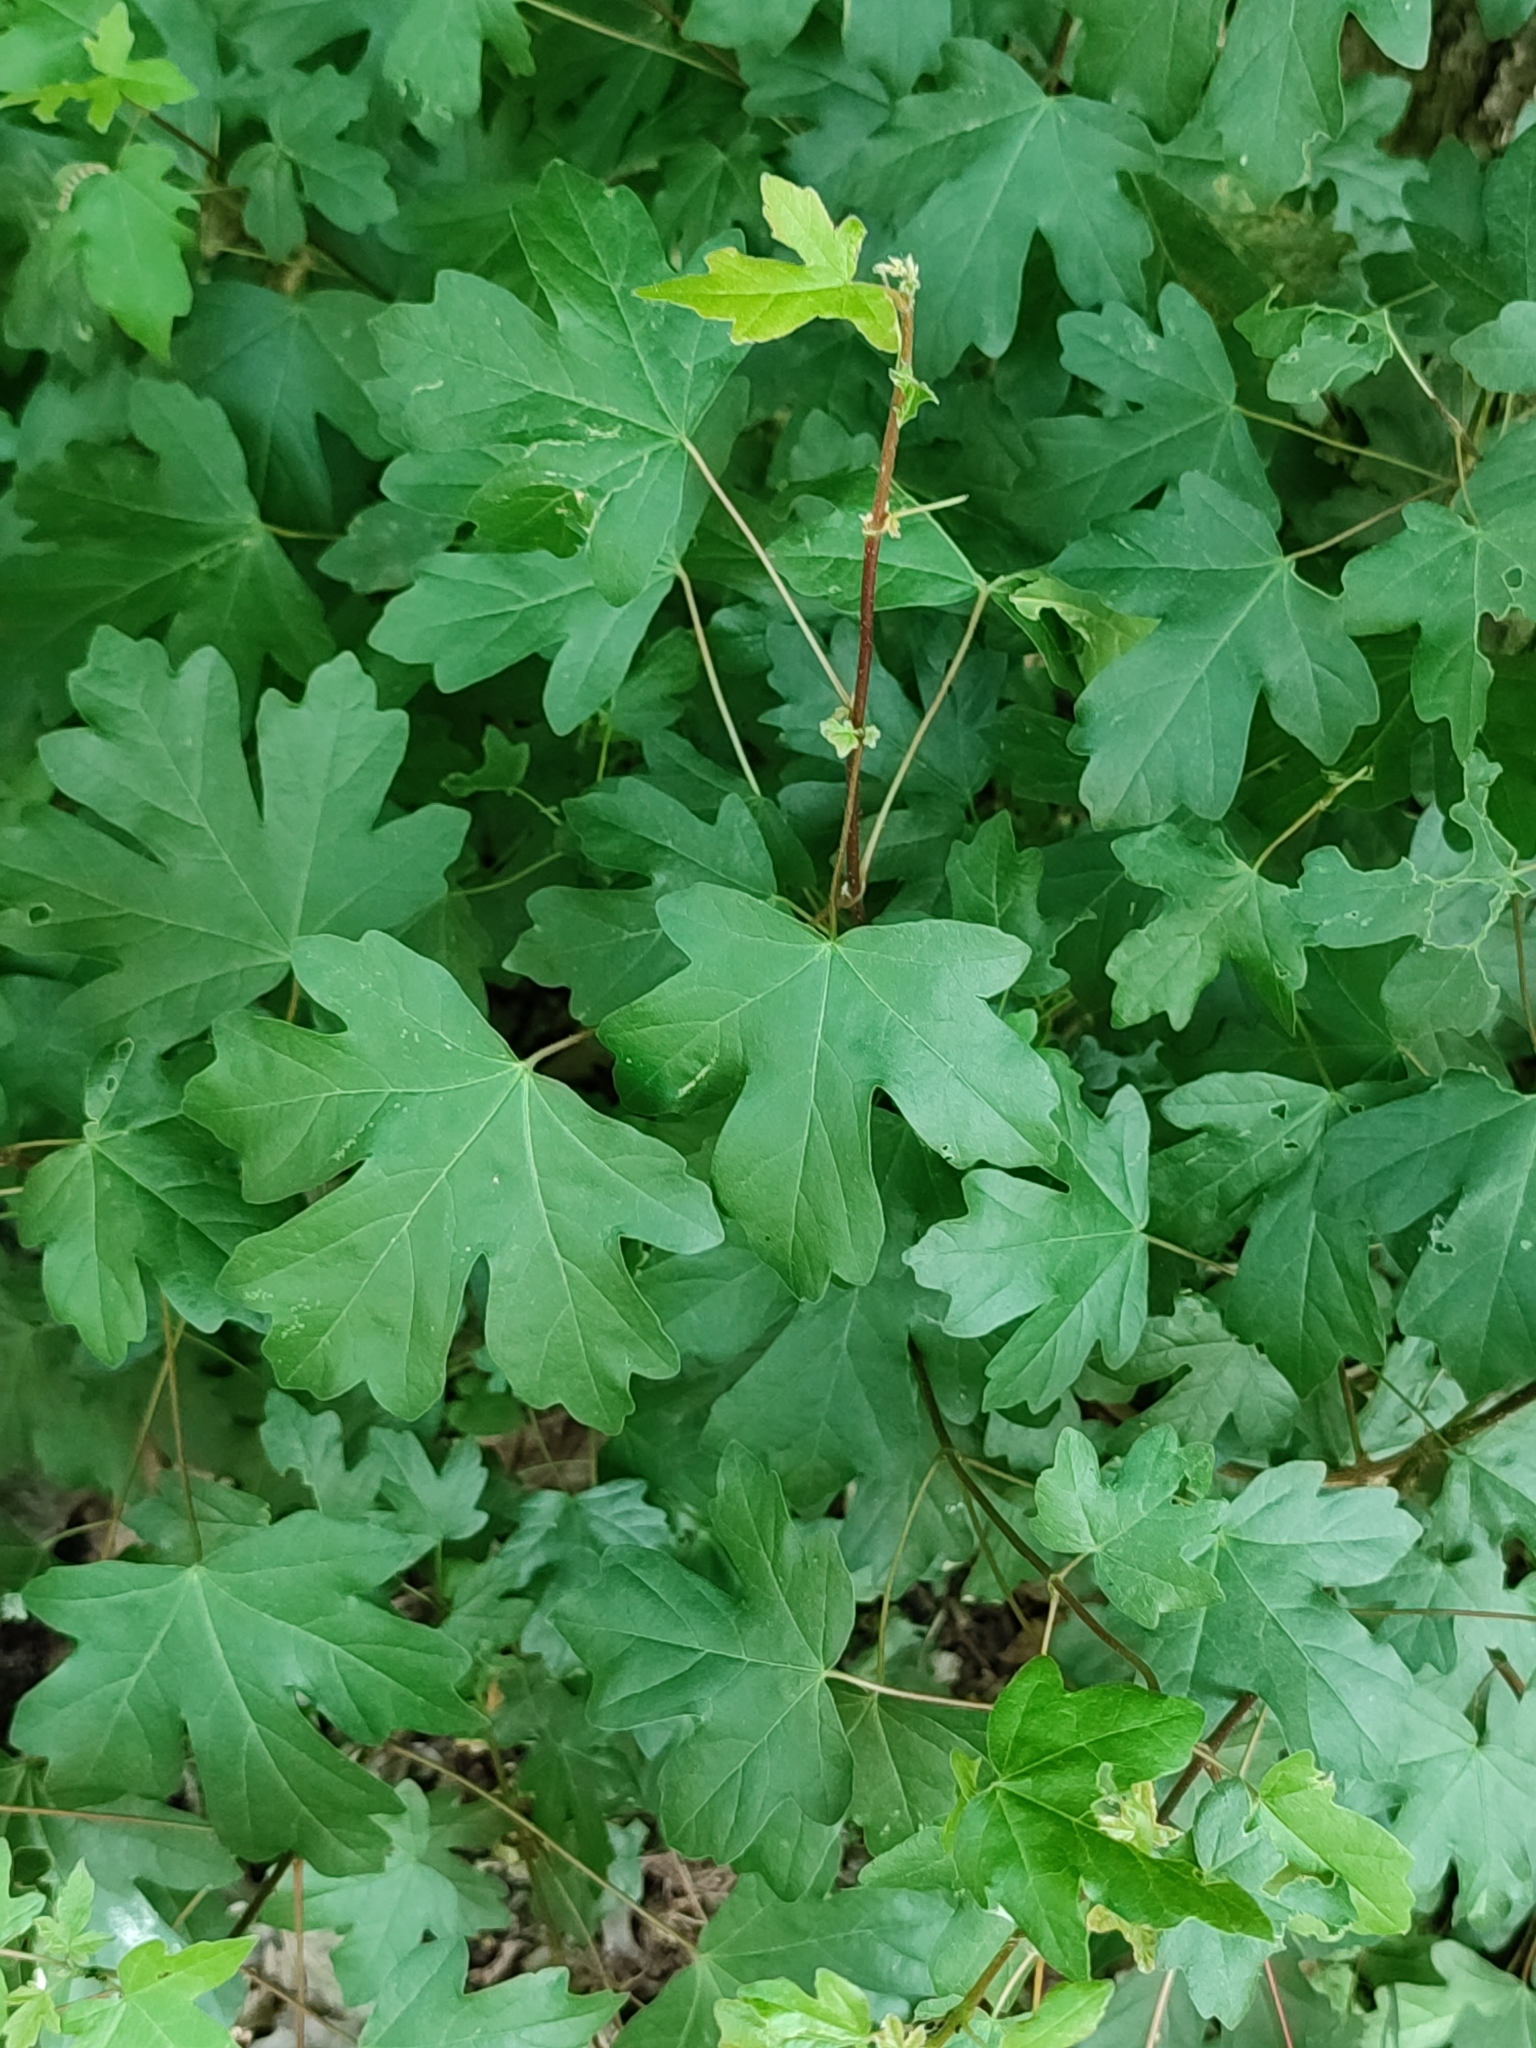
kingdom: Plantae
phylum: Tracheophyta
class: Magnoliopsida
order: Sapindales
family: Sapindaceae
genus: Acer
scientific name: Acer campestre
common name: Field maple
